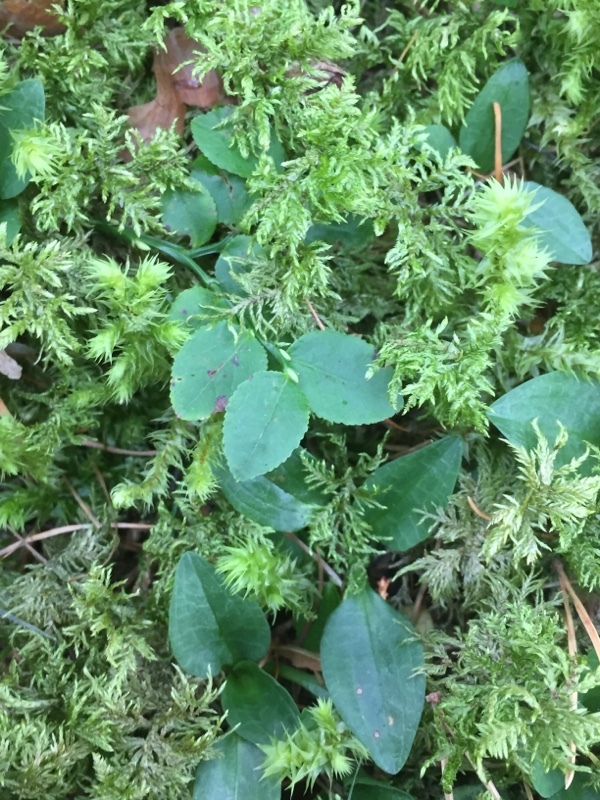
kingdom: Plantae
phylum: Tracheophyta
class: Liliopsida
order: Asparagales
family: Orchidaceae
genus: Goodyera
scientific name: Goodyera repens
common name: Creeping lady's-tresses
